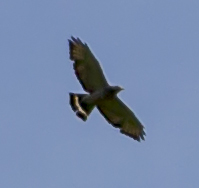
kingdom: Animalia
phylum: Chordata
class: Aves
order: Accipitriformes
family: Accipitridae
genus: Buteo
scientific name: Buteo platypterus
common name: Broad-winged hawk
